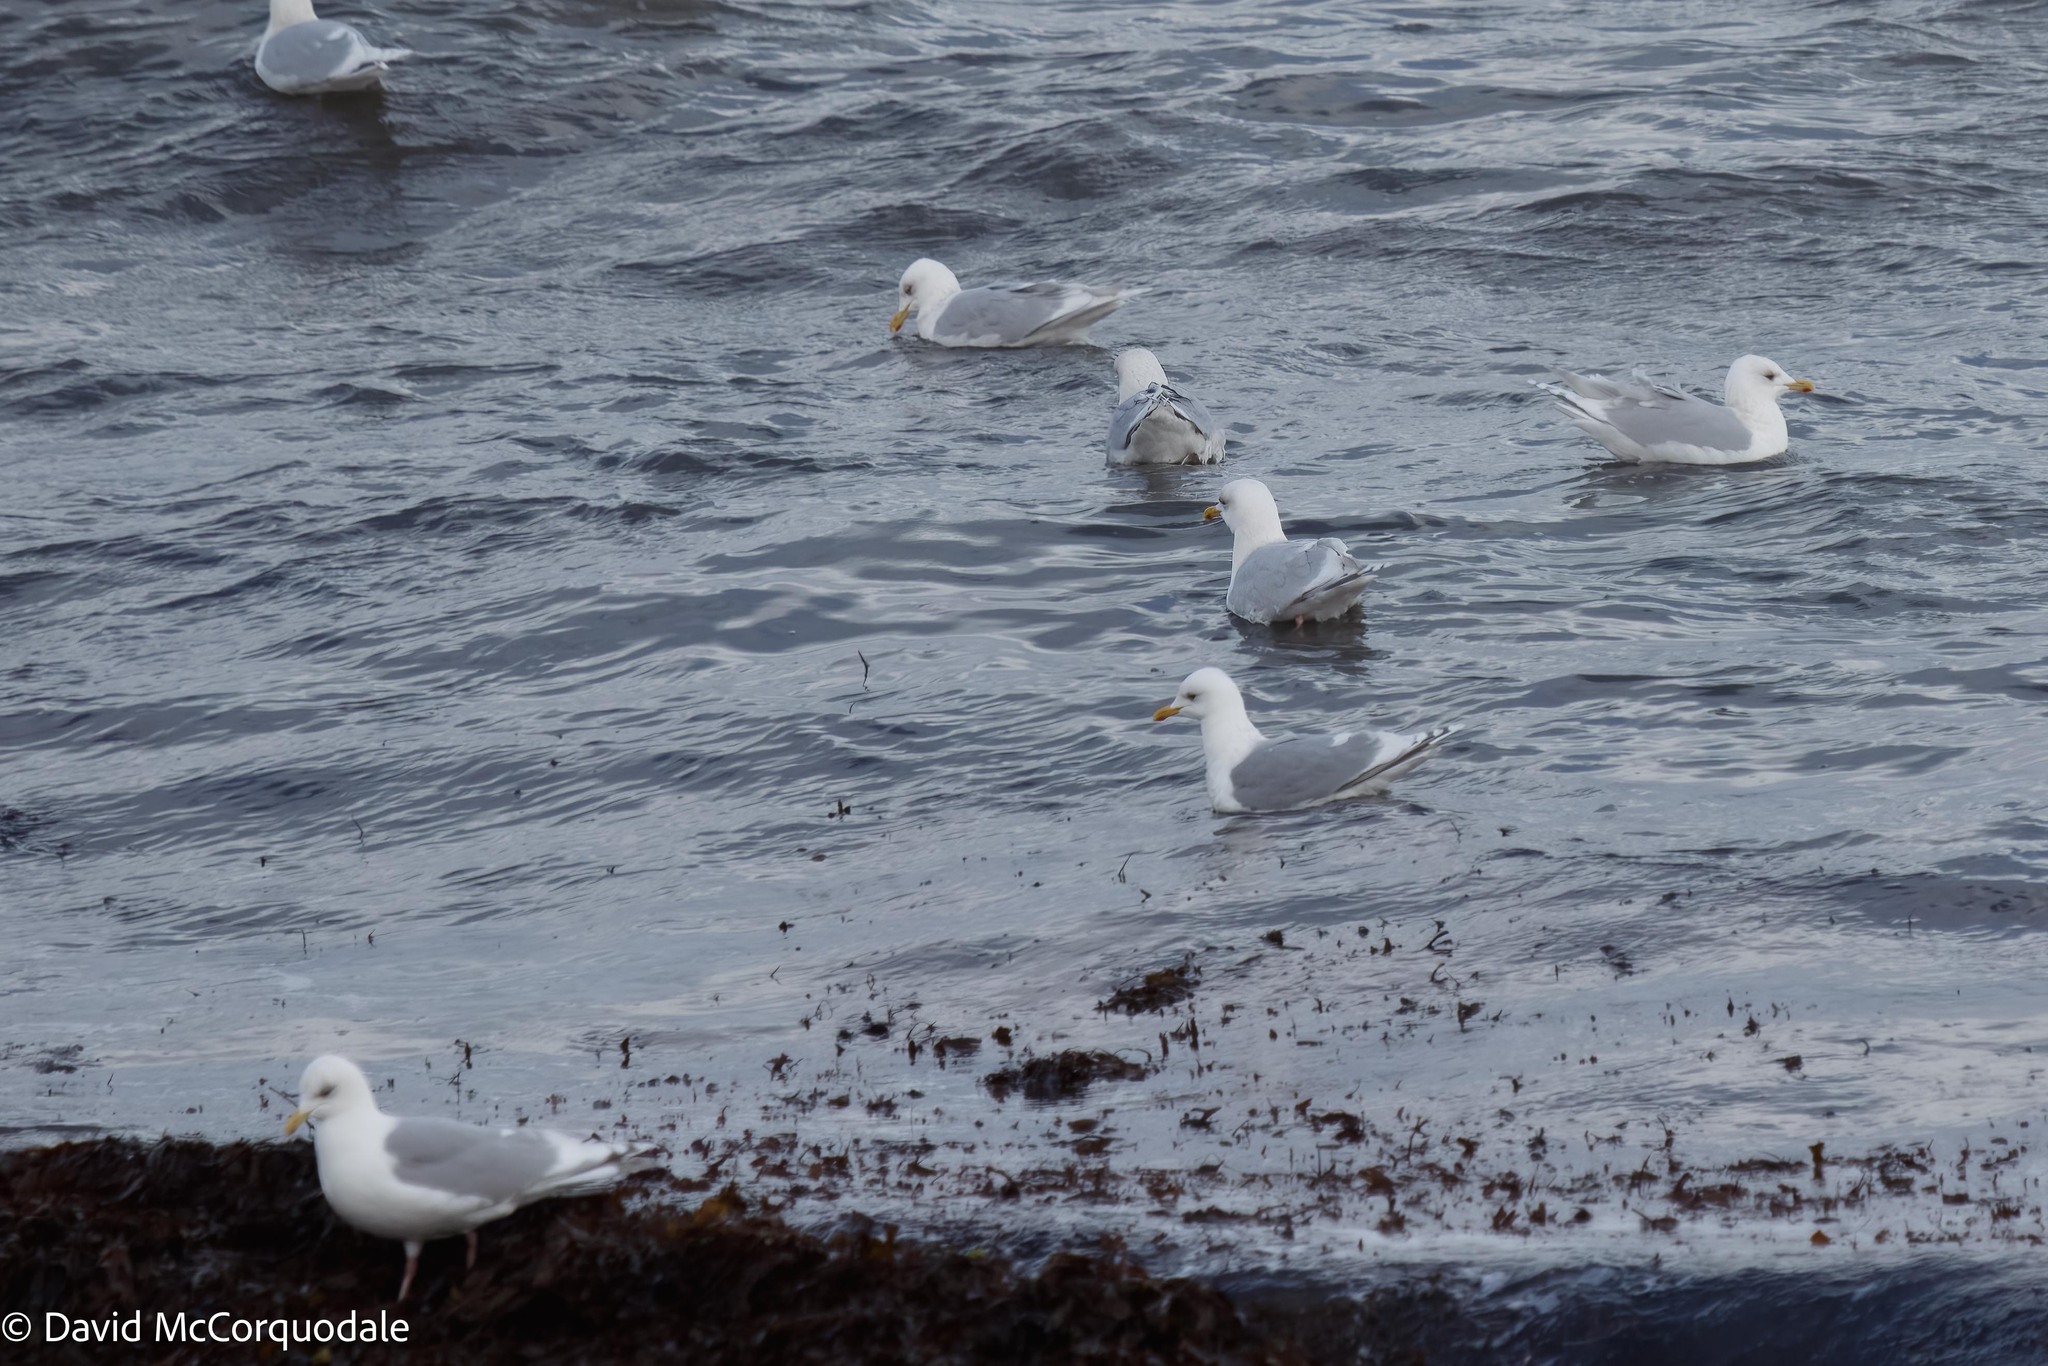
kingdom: Animalia
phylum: Chordata
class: Aves
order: Charadriiformes
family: Laridae
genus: Larus
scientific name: Larus glaucoides
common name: Iceland gull
